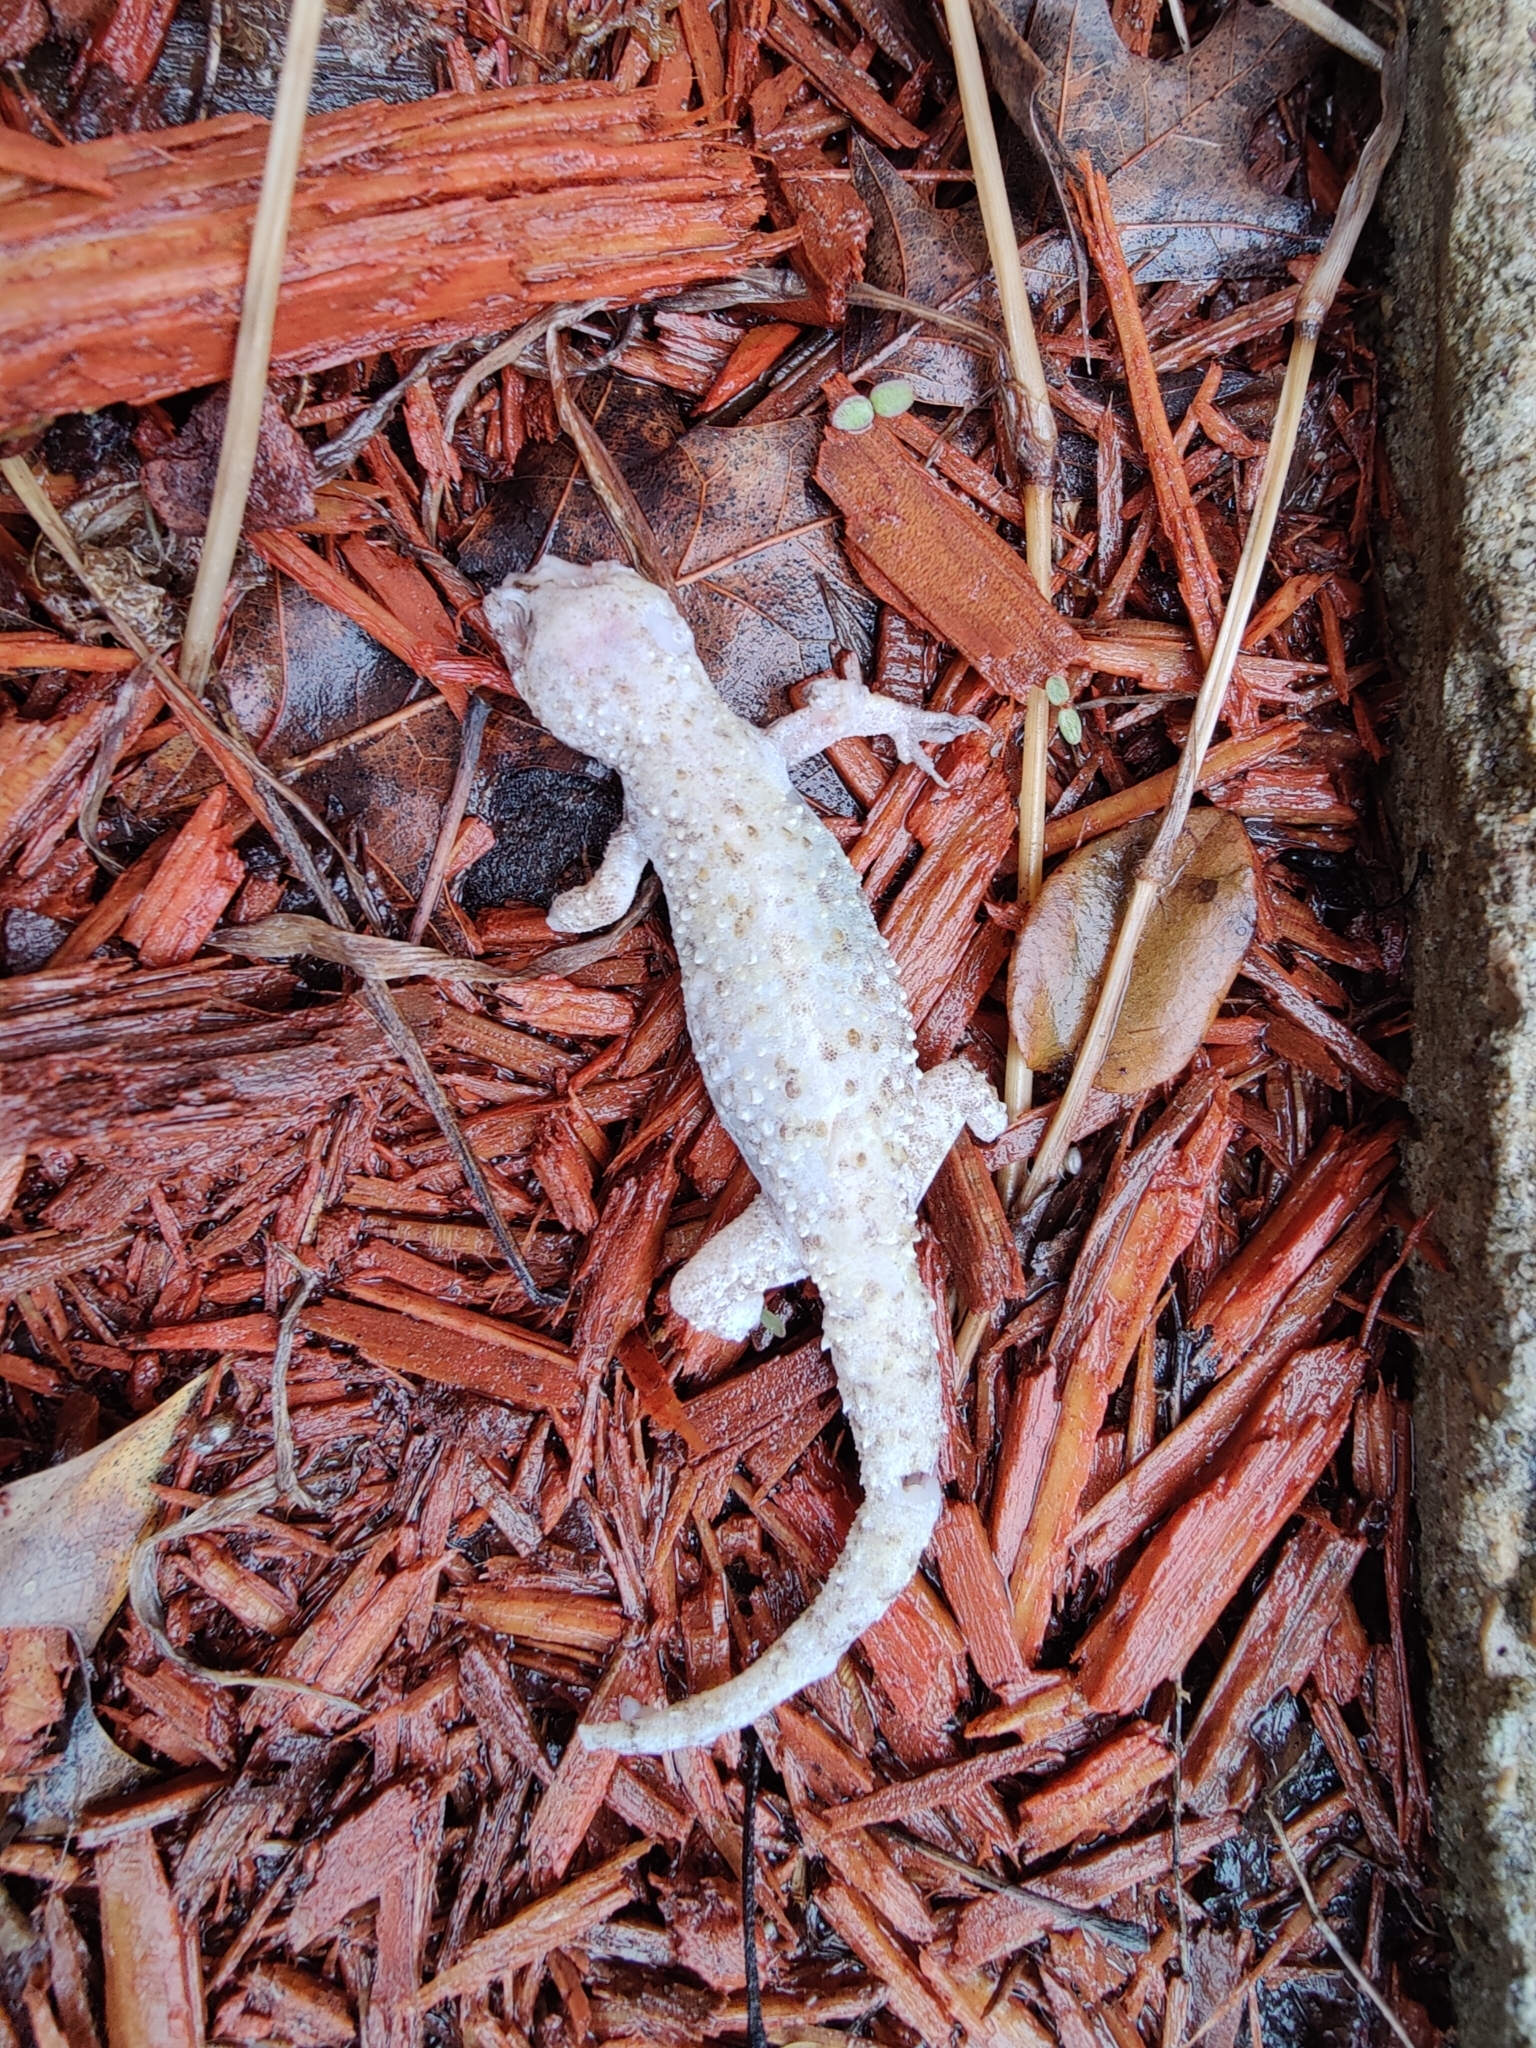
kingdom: Animalia
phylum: Chordata
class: Squamata
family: Gekkonidae
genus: Hemidactylus
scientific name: Hemidactylus turcicus
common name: Turkish gecko
